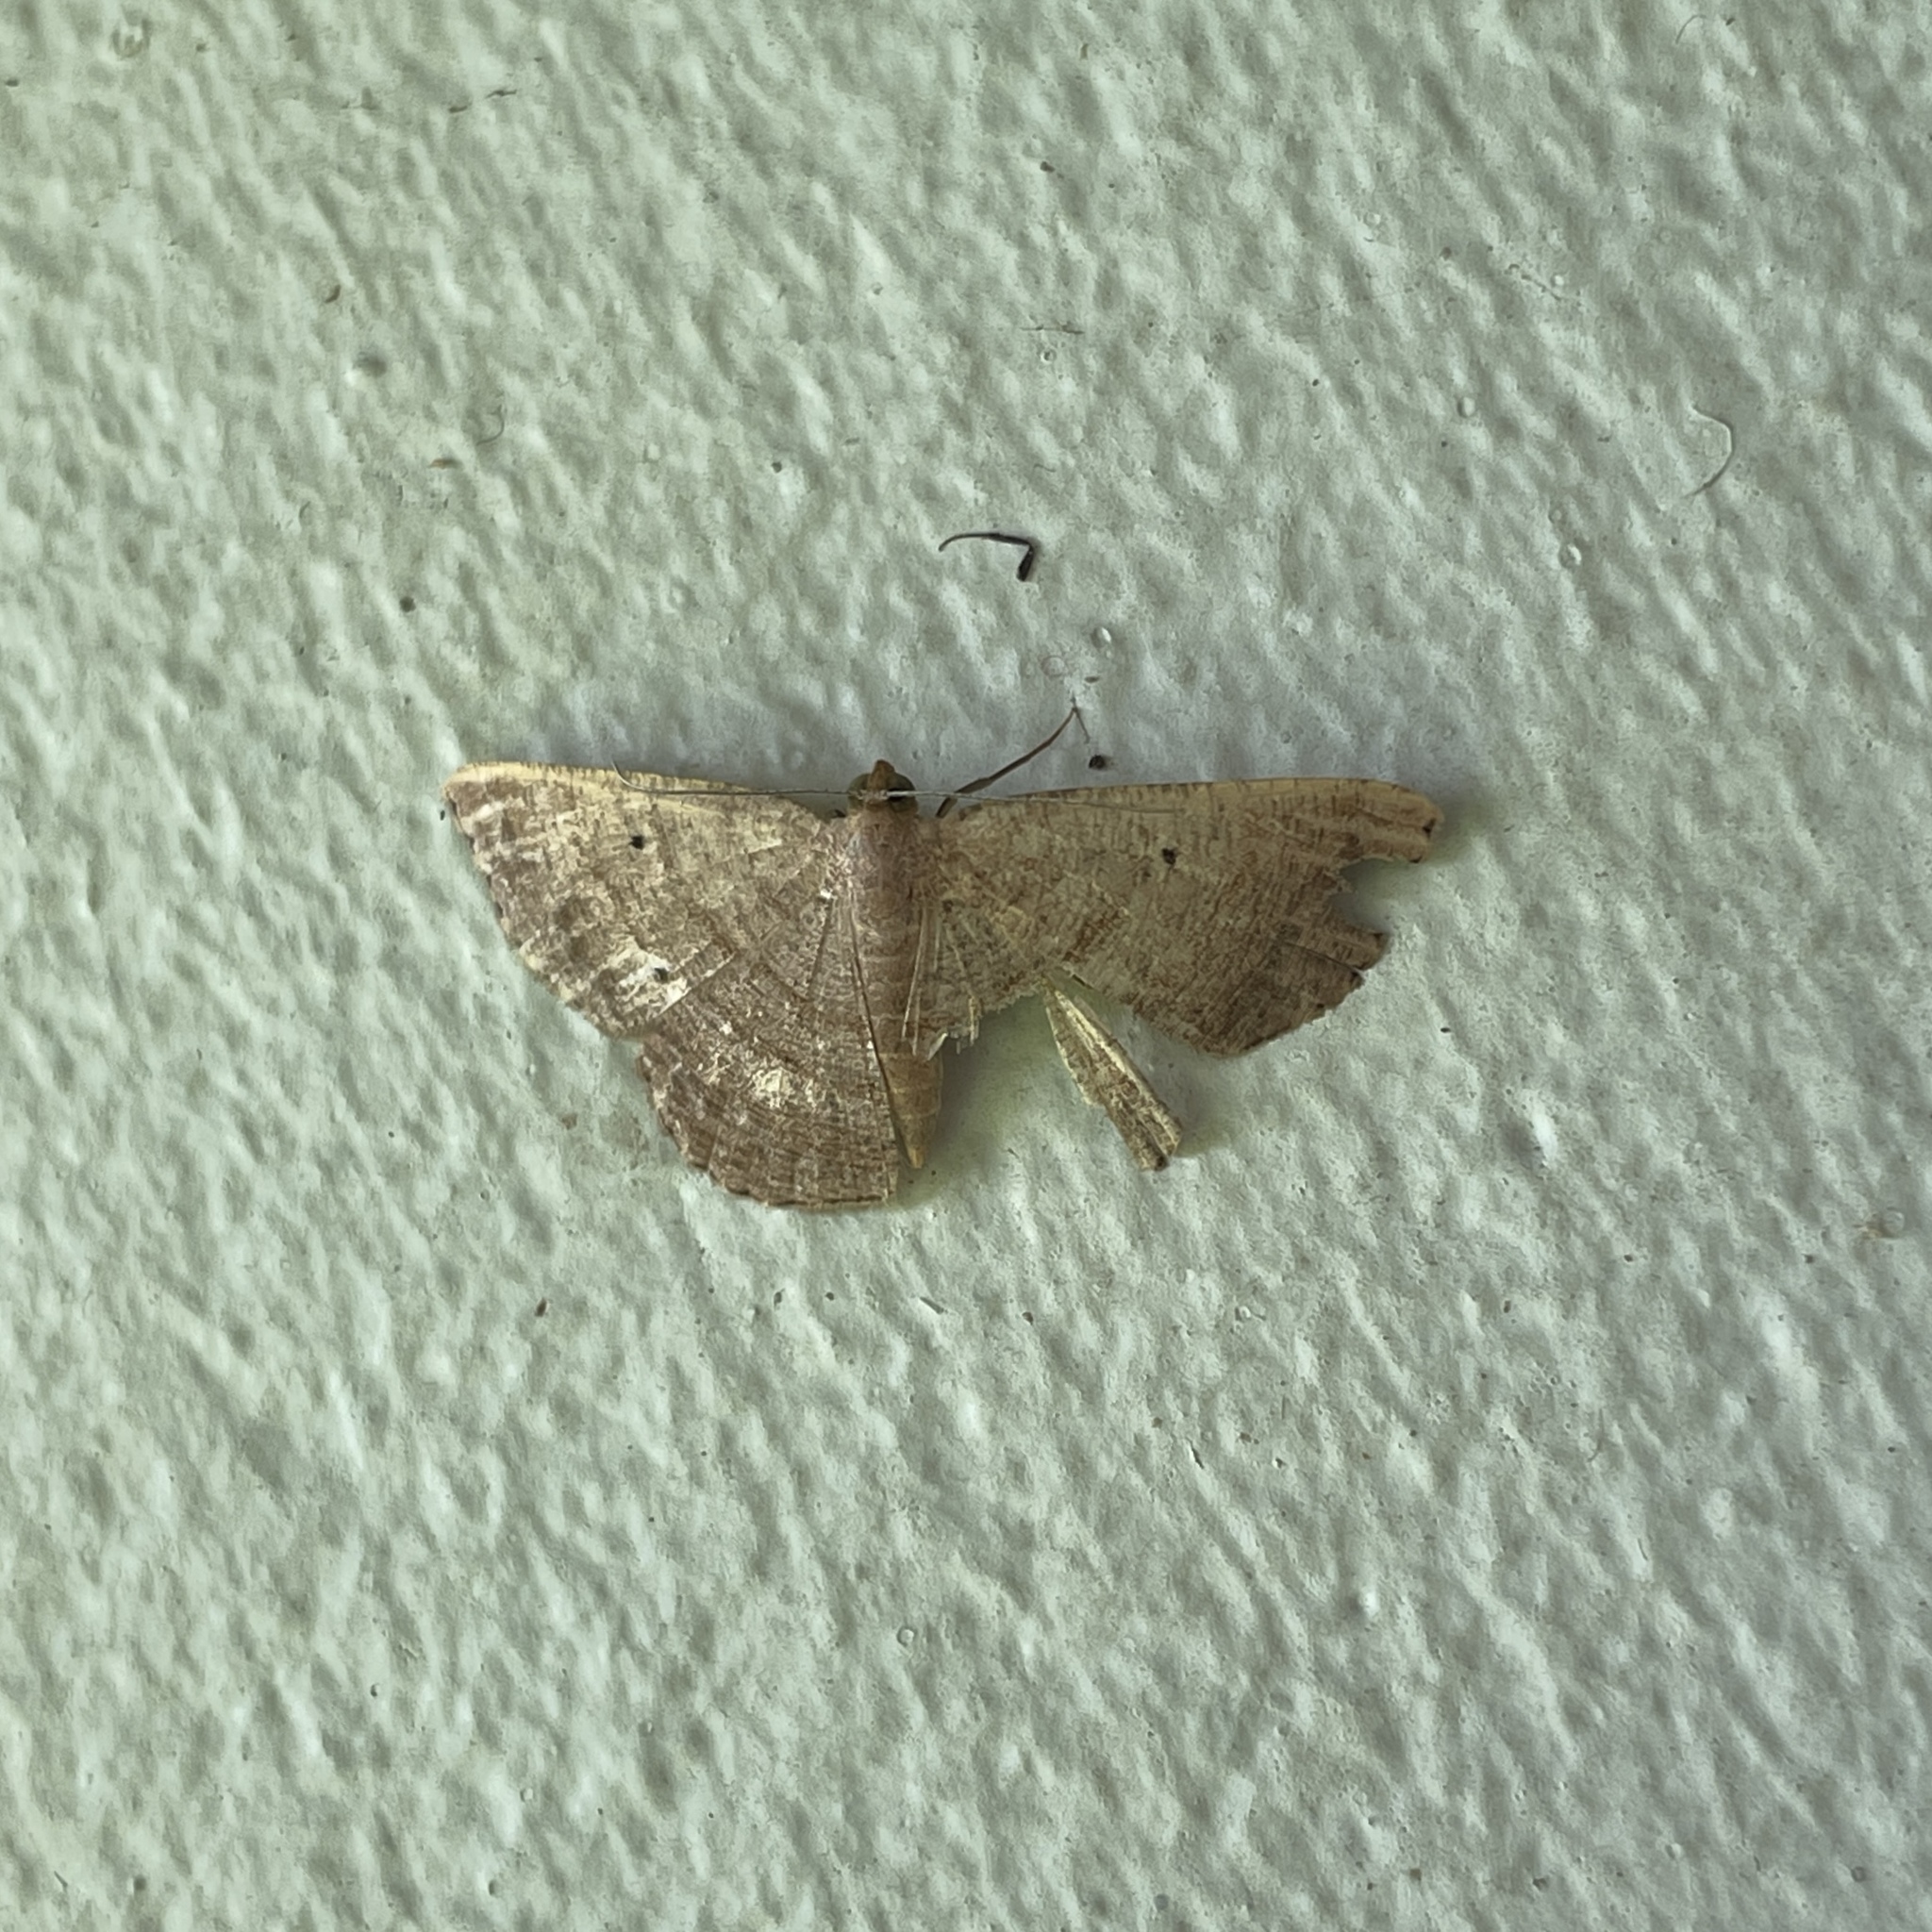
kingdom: Animalia
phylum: Arthropoda
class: Insecta
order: Lepidoptera
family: Geometridae
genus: Parilexia
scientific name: Parilexia nicetaria
